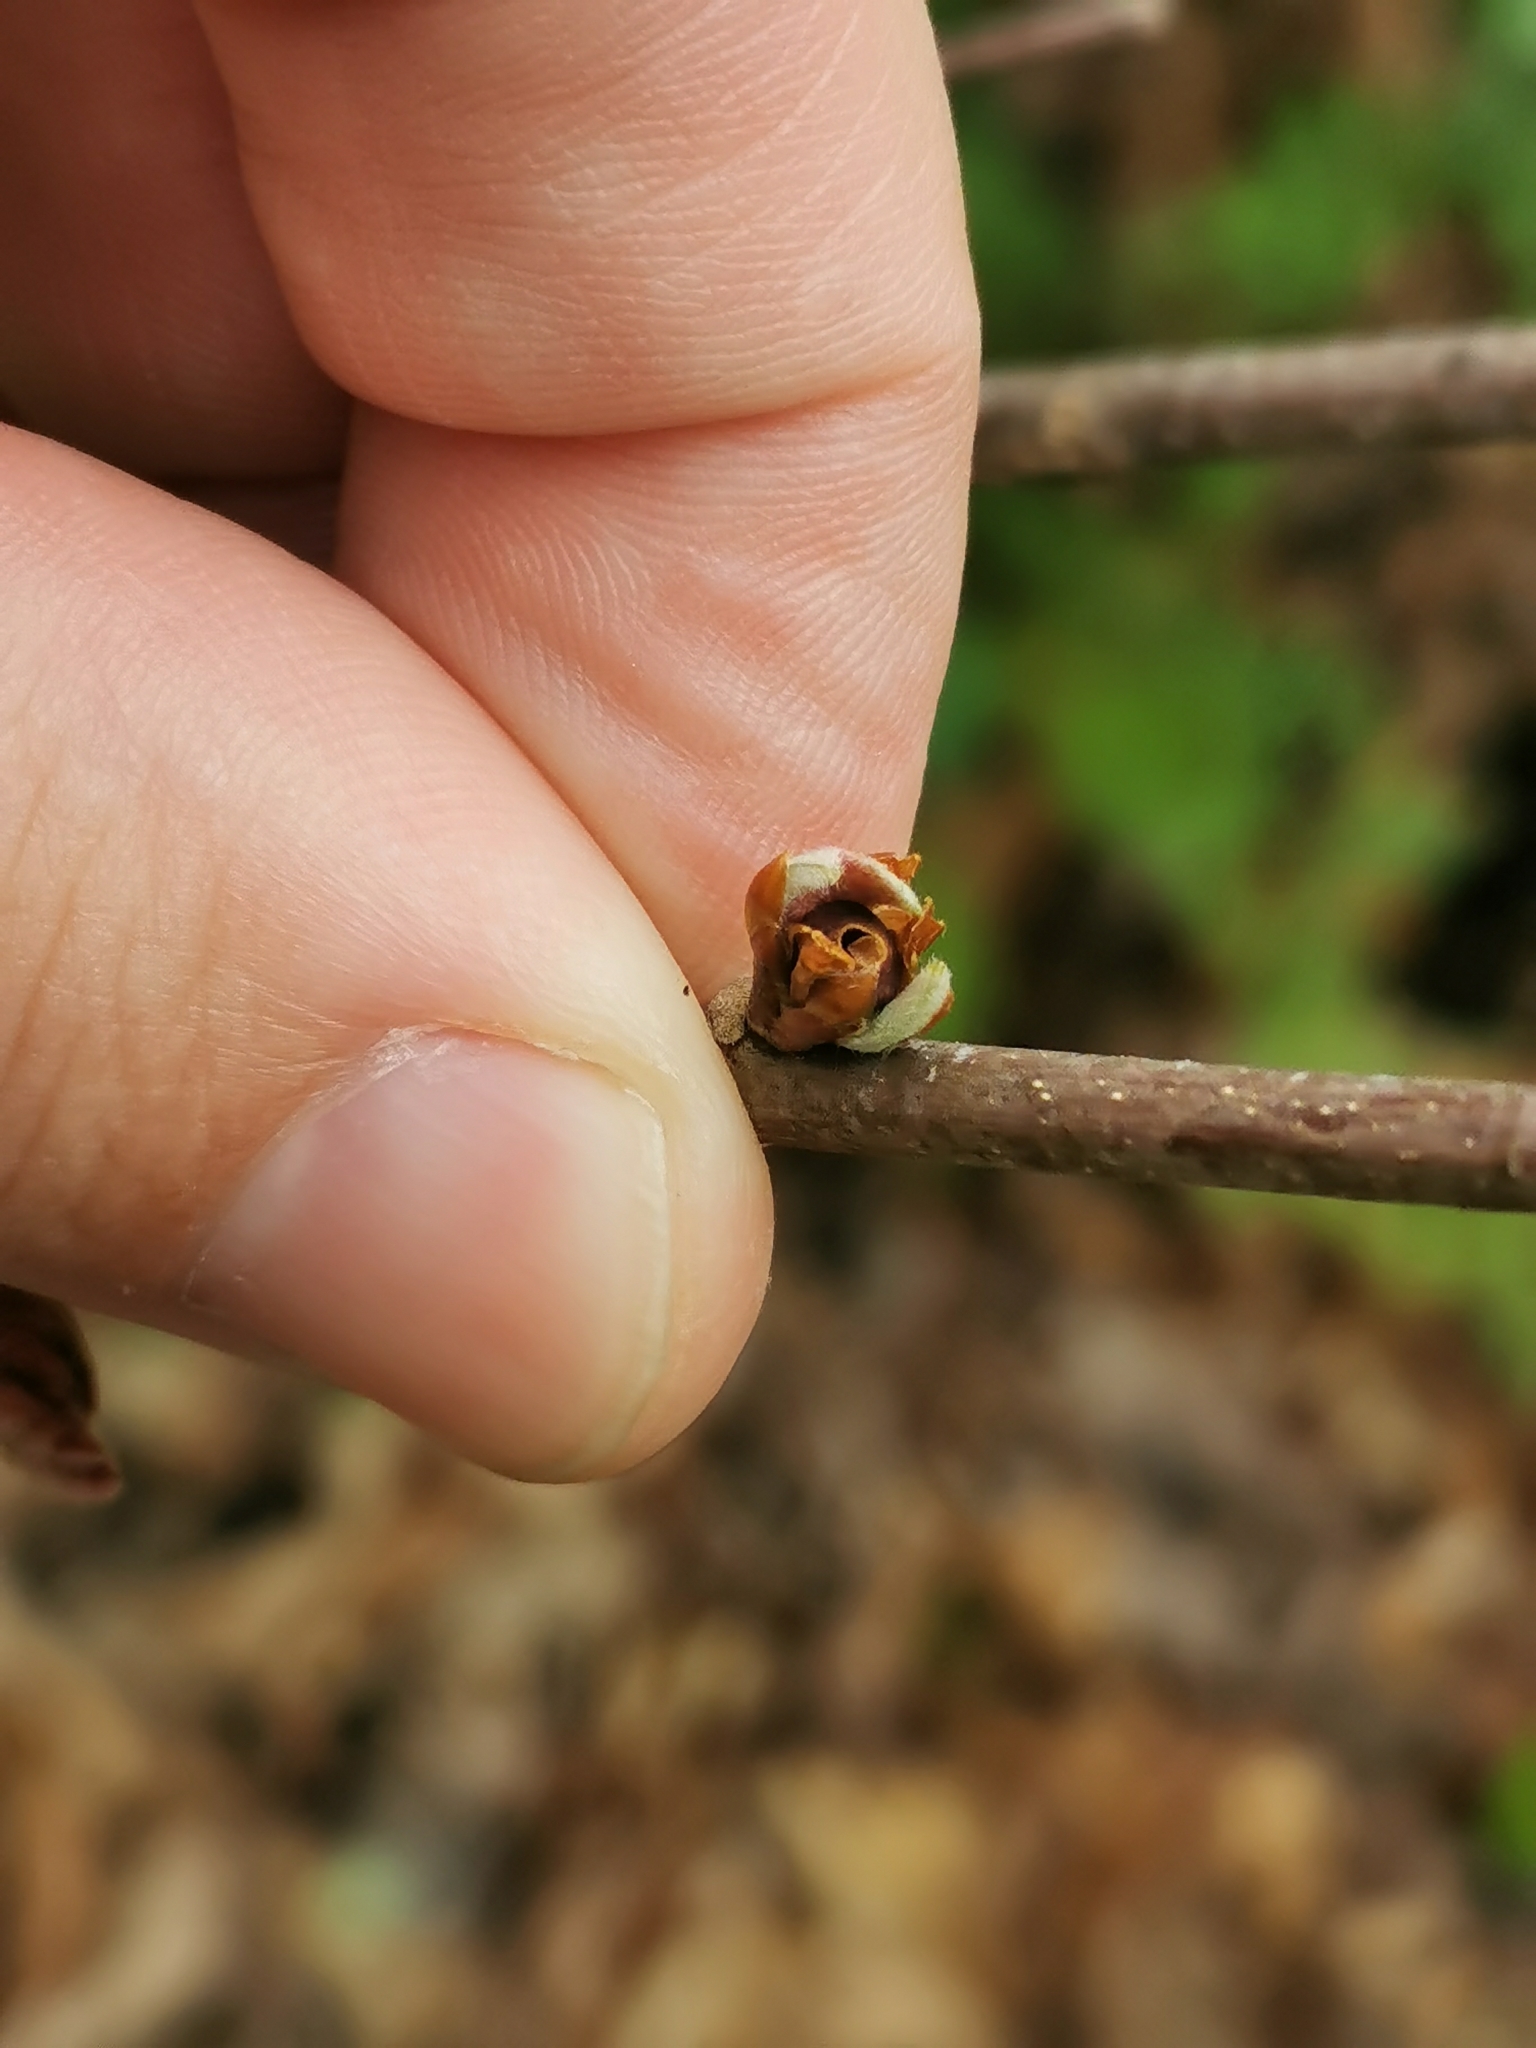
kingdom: Animalia
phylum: Arthropoda
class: Insecta
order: Hymenoptera
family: Cynipidae
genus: Neuroterus
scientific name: Neuroterus
